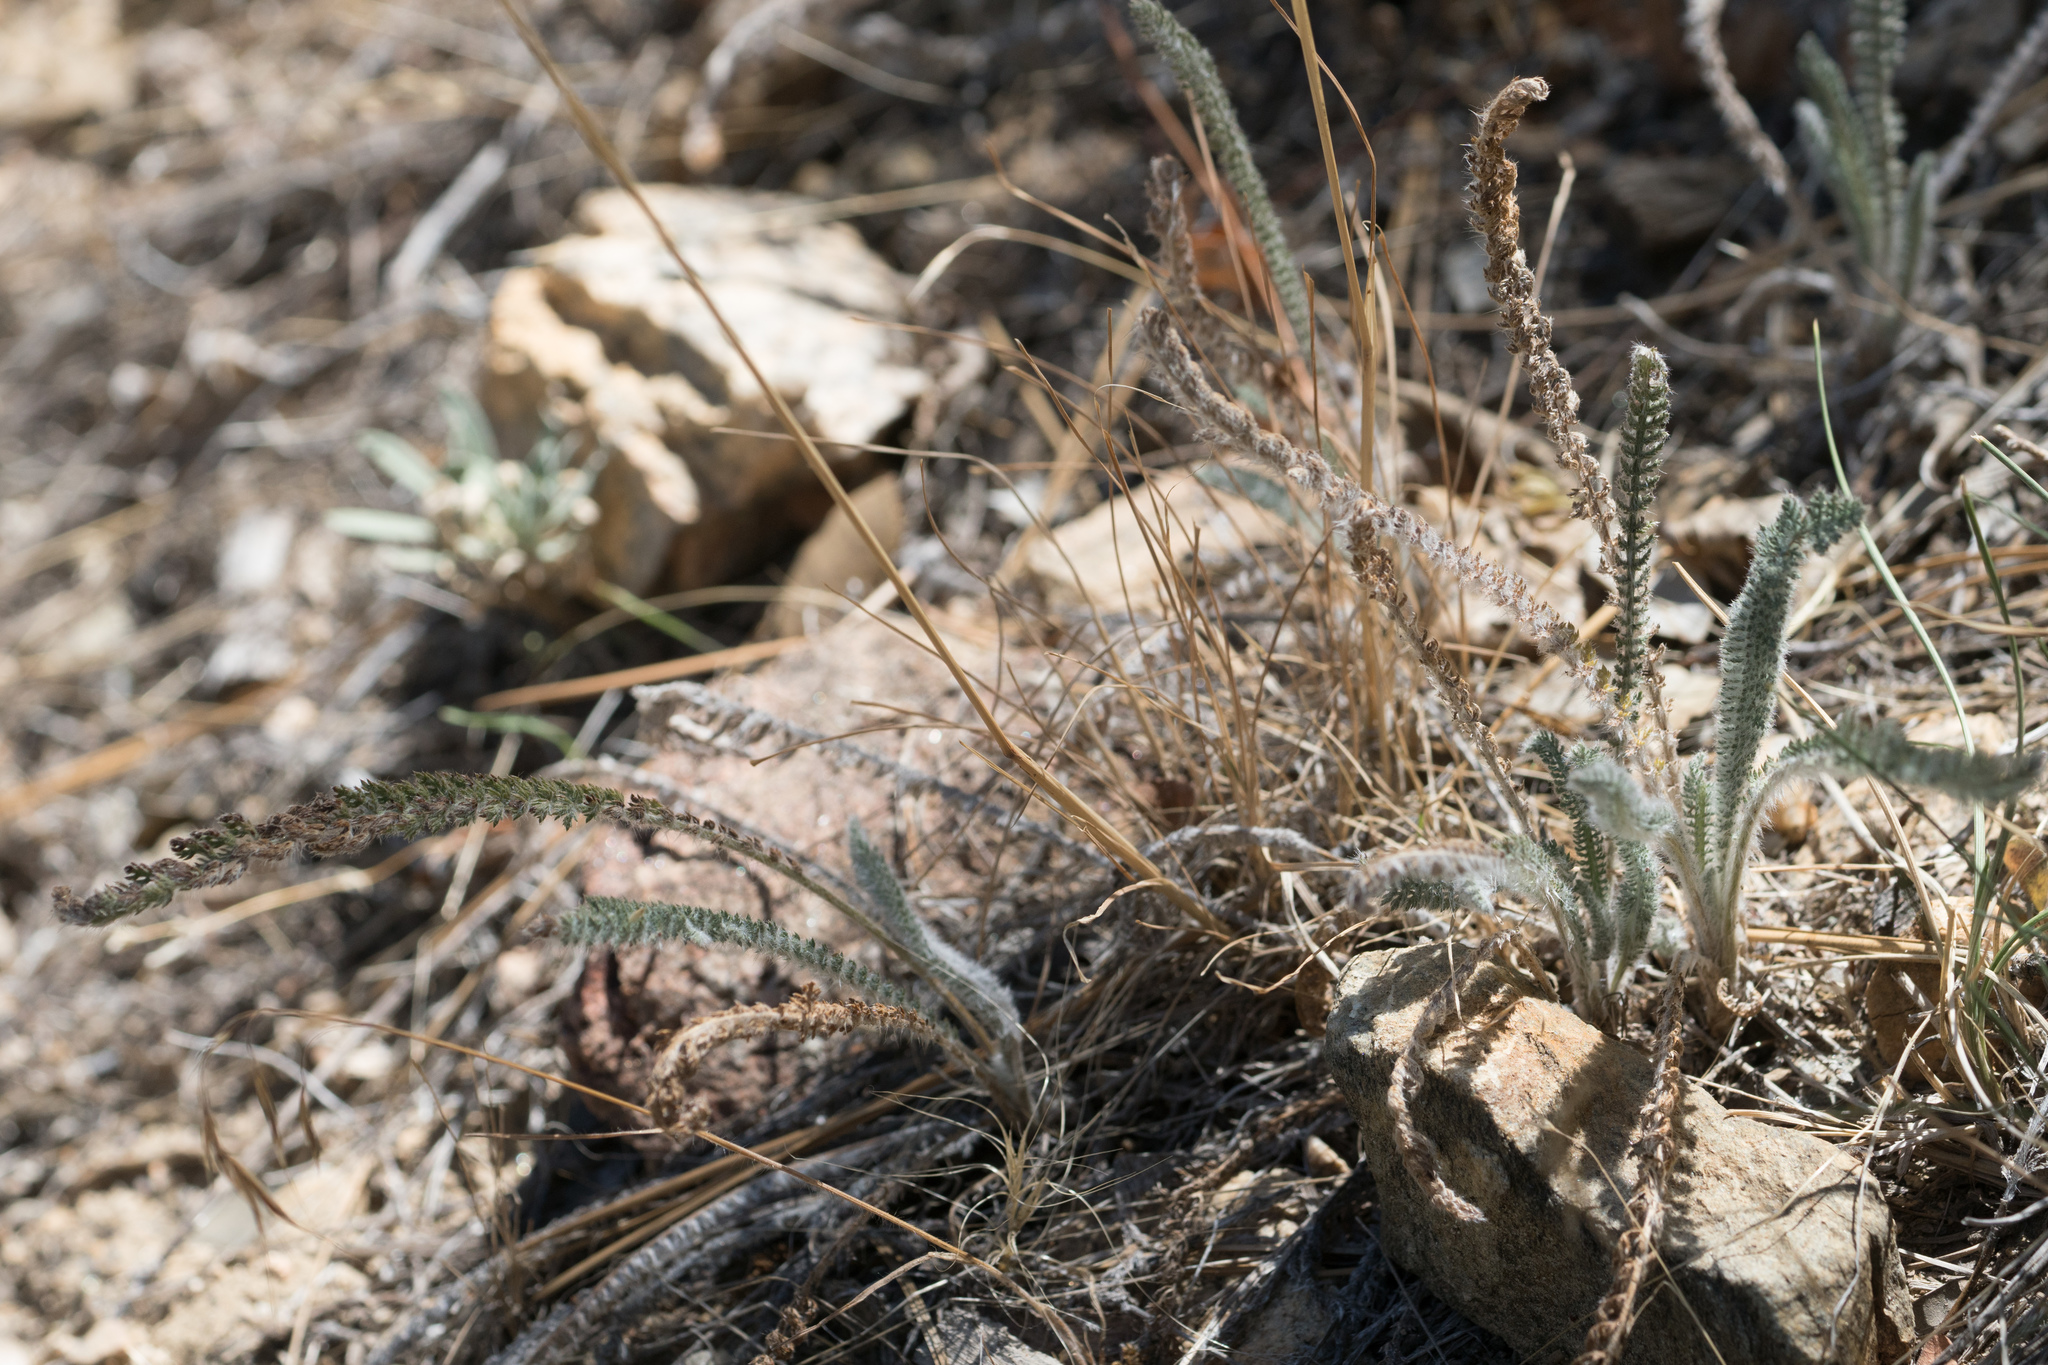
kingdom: Plantae
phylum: Tracheophyta
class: Magnoliopsida
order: Asterales
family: Asteraceae
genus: Achillea
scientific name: Achillea millefolium
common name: Yarrow
